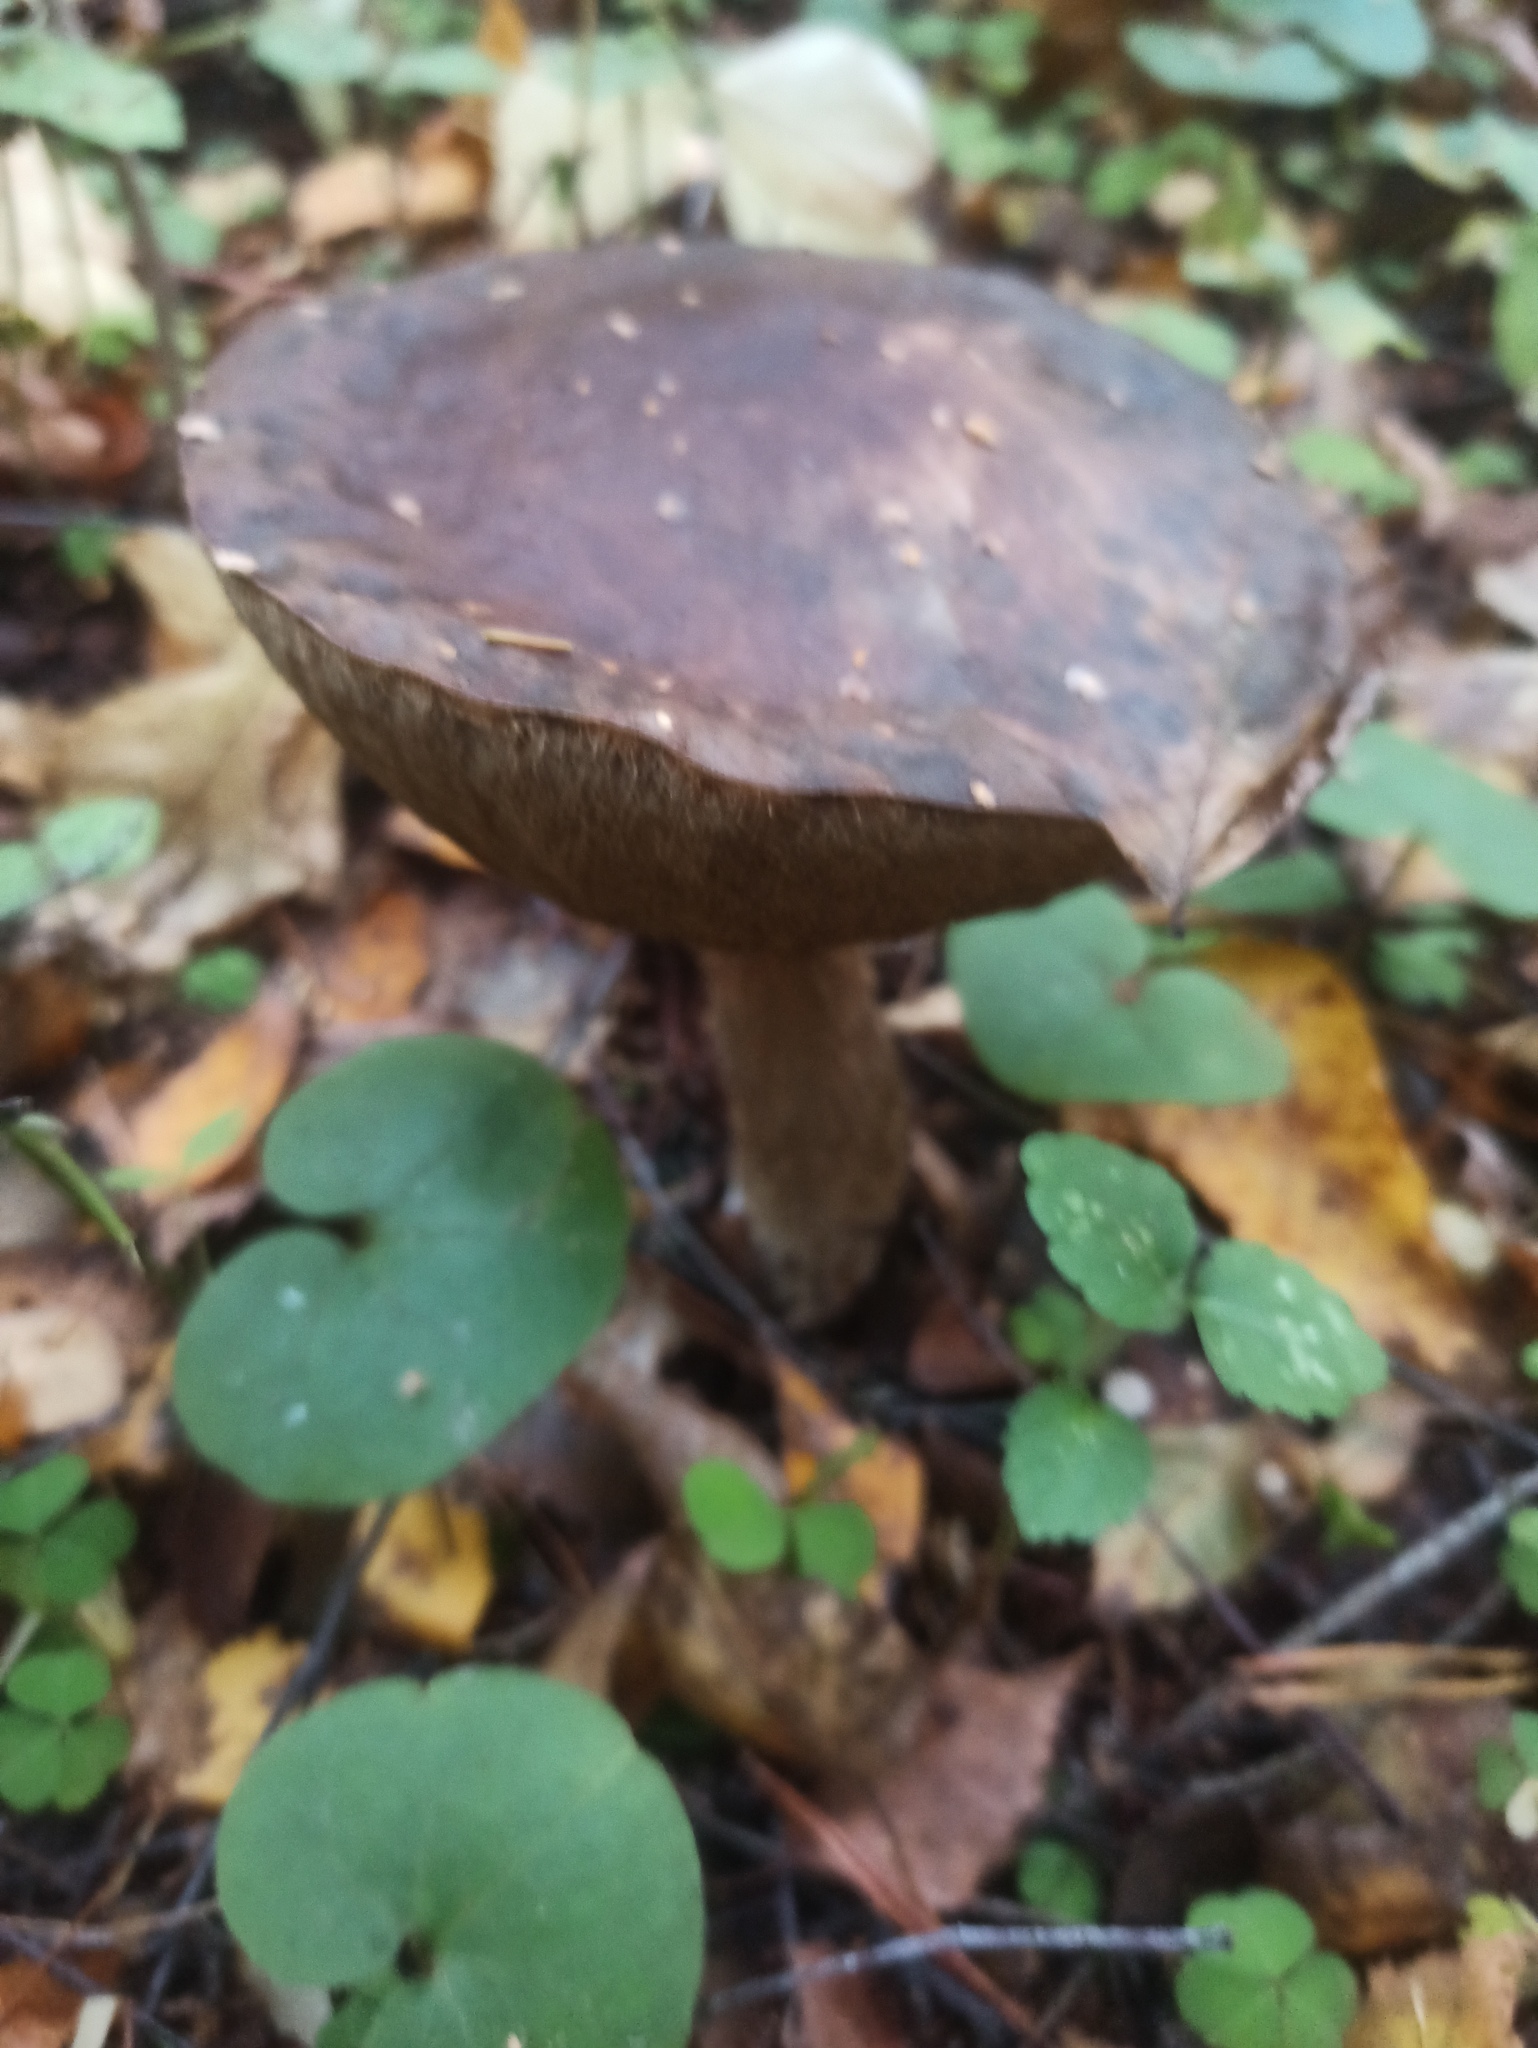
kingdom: Fungi
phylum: Basidiomycota
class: Agaricomycetes
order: Boletales
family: Boletaceae
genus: Leccinum
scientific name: Leccinum scabrum
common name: Blushing bolete
